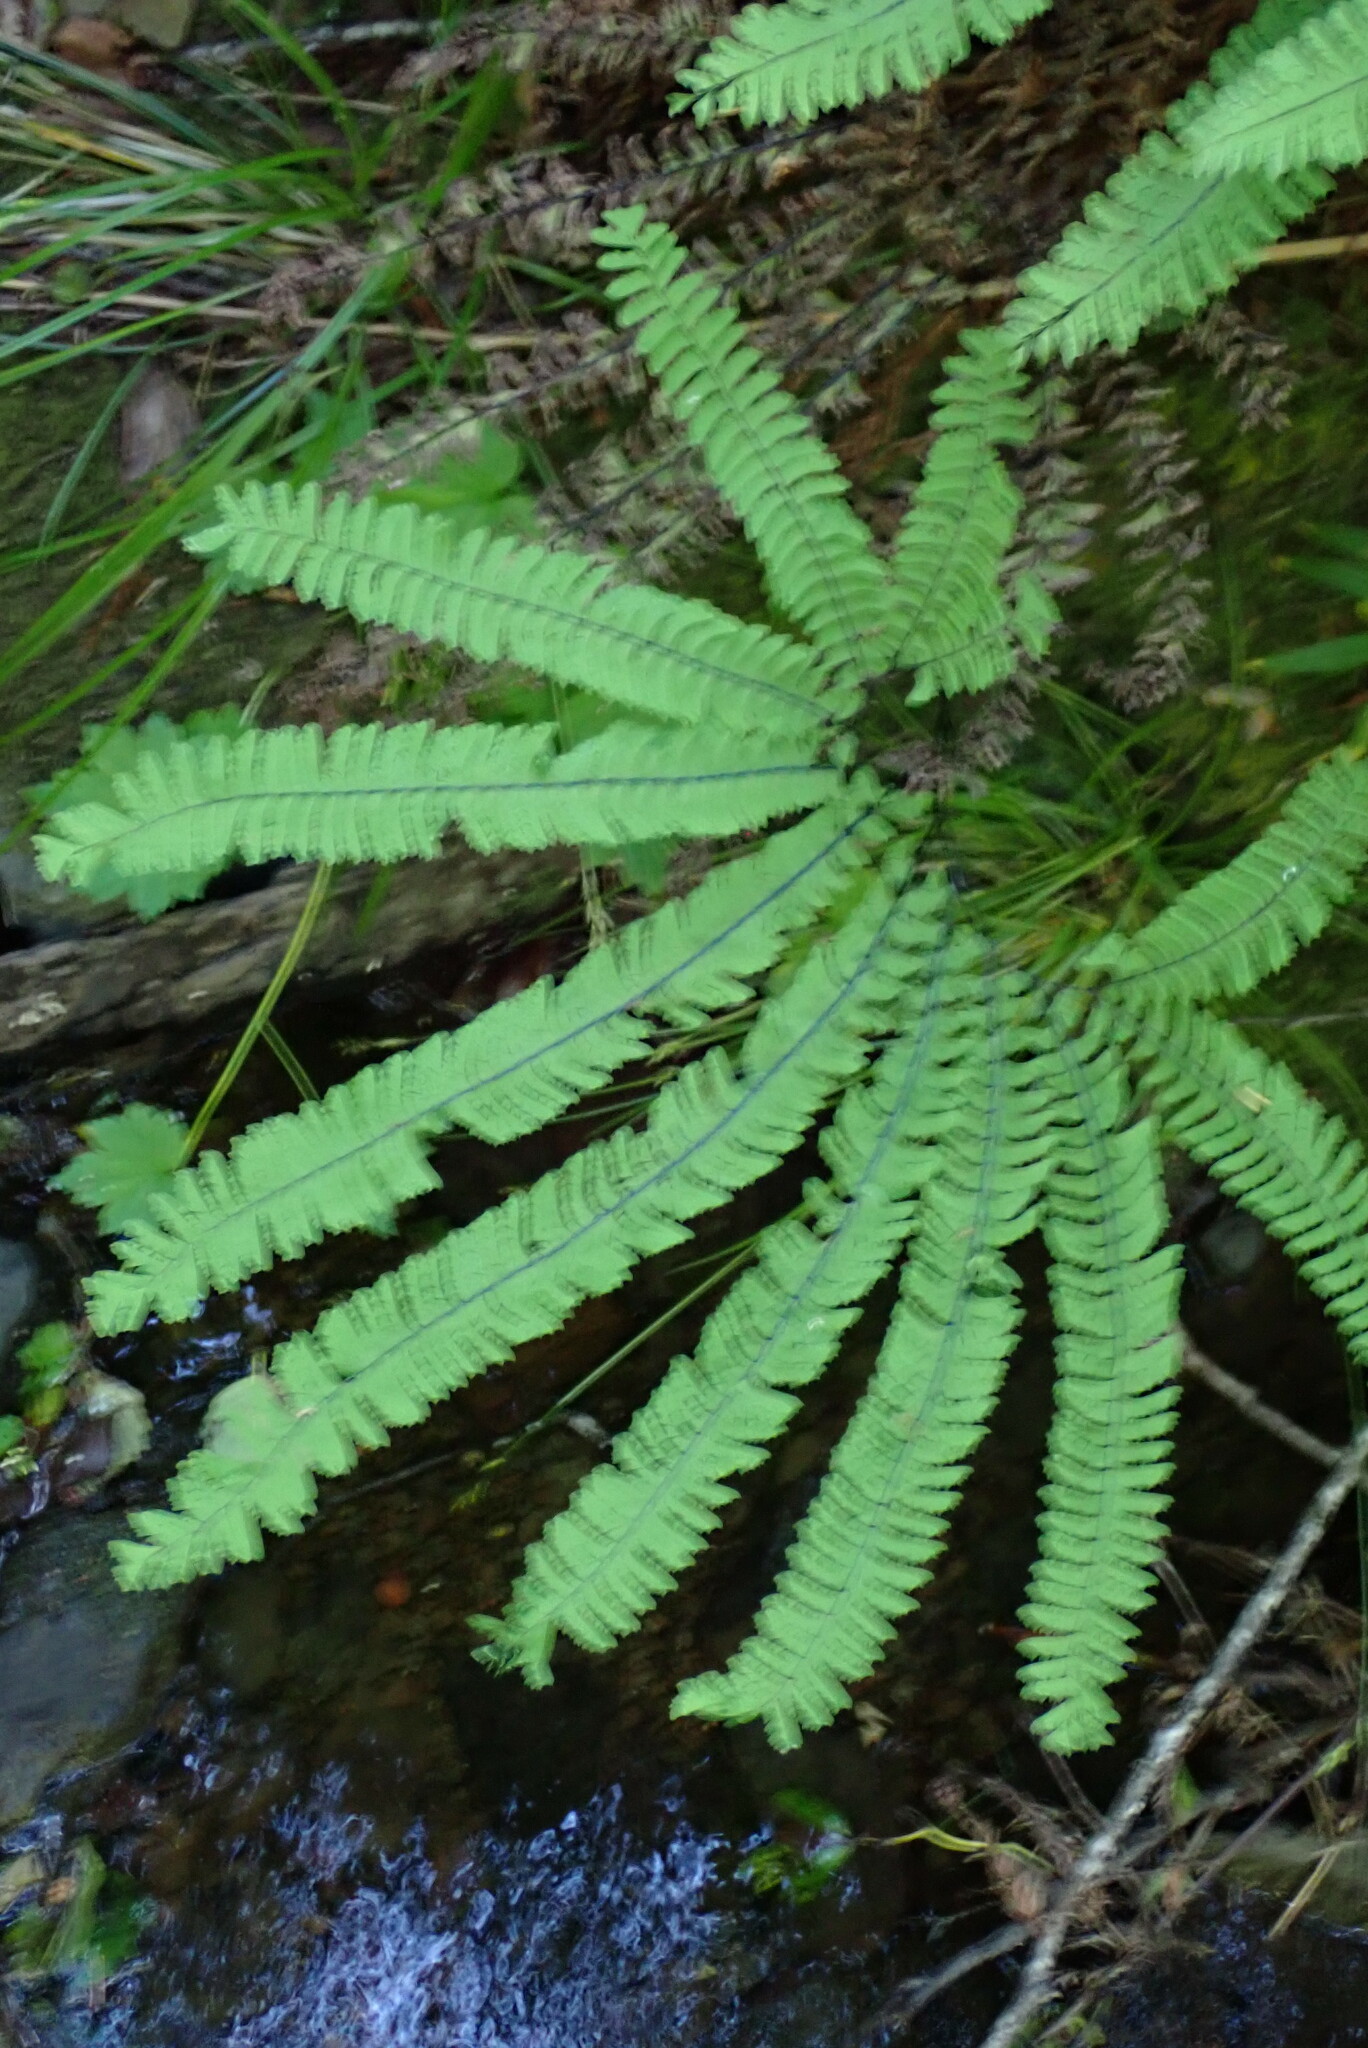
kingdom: Plantae
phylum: Tracheophyta
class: Polypodiopsida
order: Polypodiales
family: Pteridaceae
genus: Adiantum
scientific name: Adiantum aleuticum
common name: Aleutian maidenhair fern
